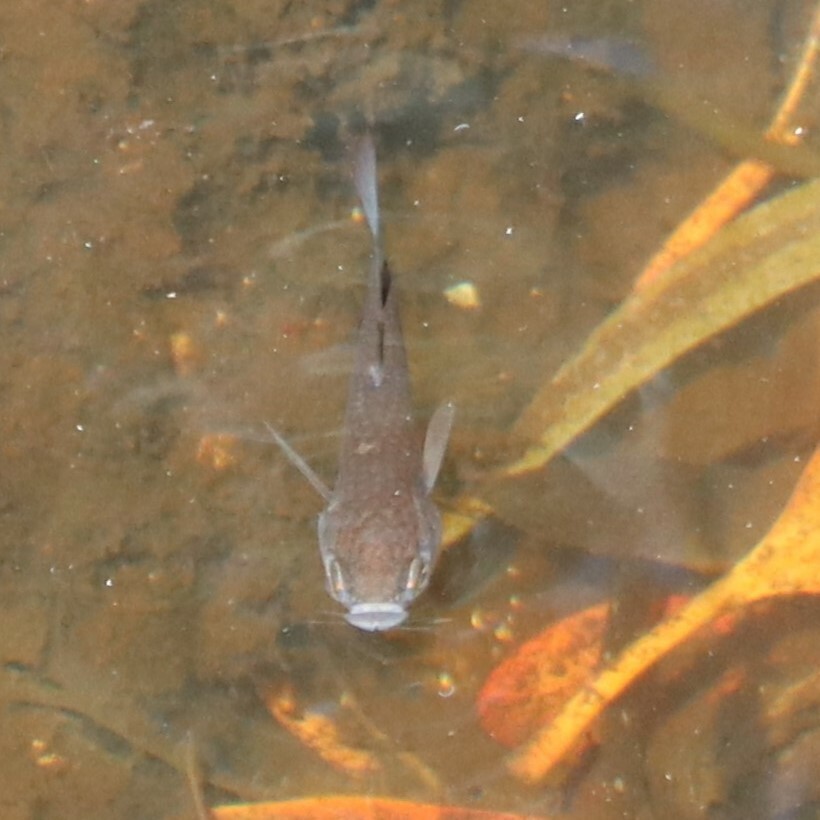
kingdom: Animalia
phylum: Chordata
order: Perciformes
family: Apogonidae
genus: Pristiapogon
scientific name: Pristiapogon kallopterus
